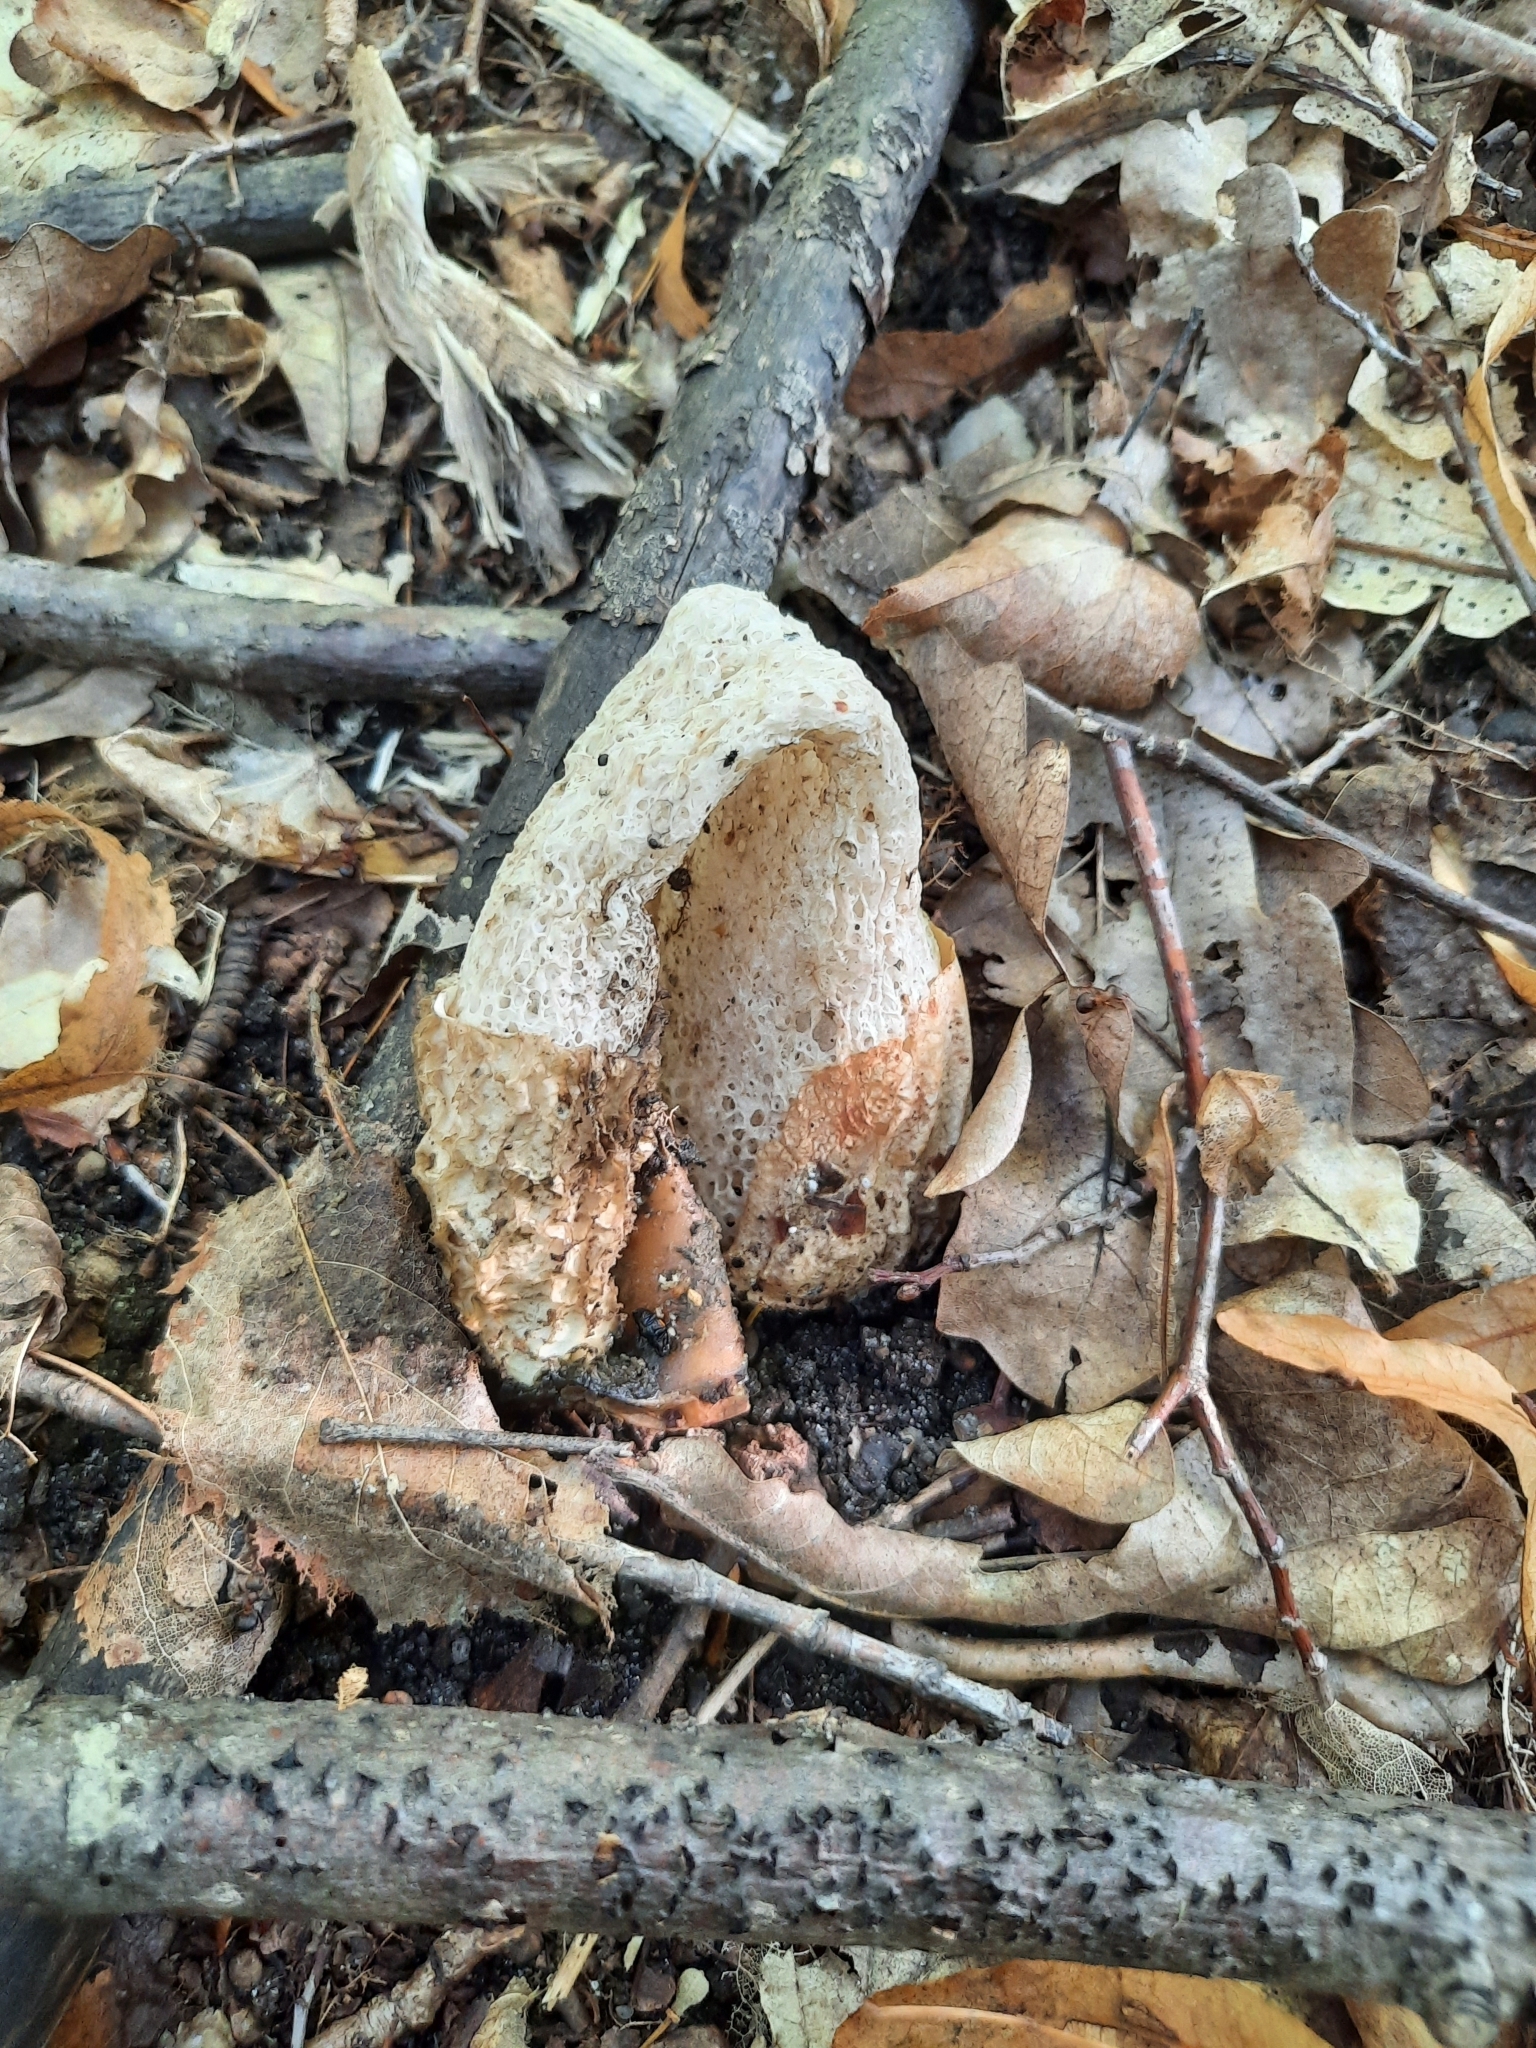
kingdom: Fungi
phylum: Basidiomycota
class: Agaricomycetes
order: Phallales
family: Phallaceae
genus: Phallus
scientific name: Phallus impudicus
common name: Common stinkhorn
